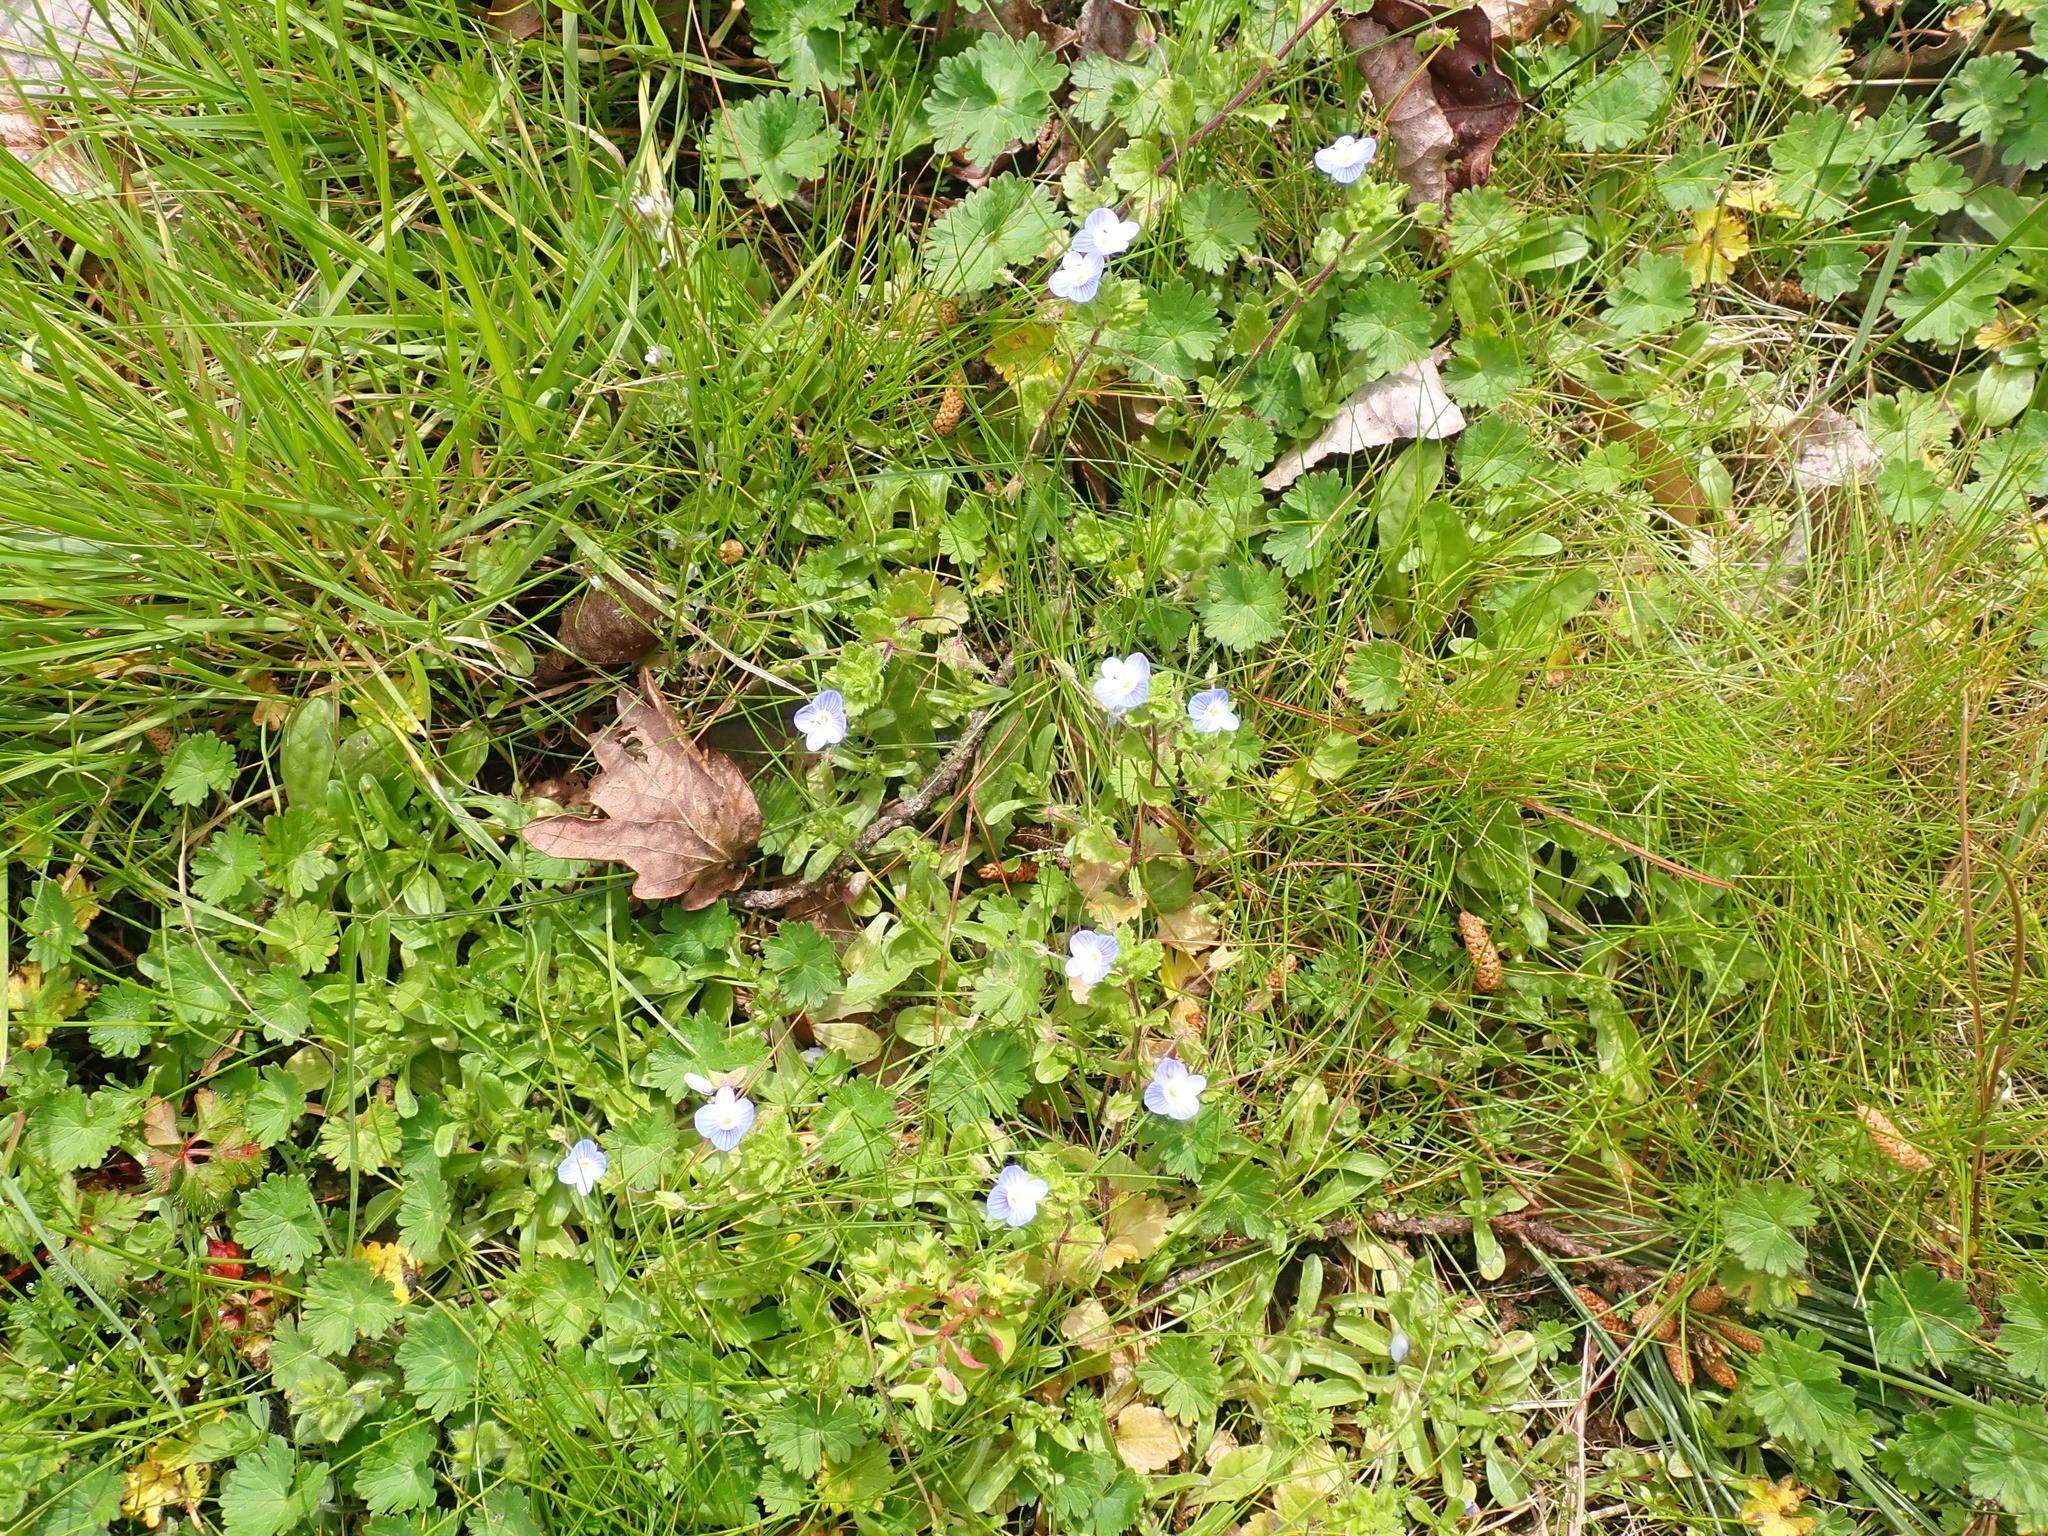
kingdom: Plantae
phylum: Tracheophyta
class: Magnoliopsida
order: Lamiales
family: Plantaginaceae
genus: Veronica
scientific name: Veronica persica
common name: Common field-speedwell
